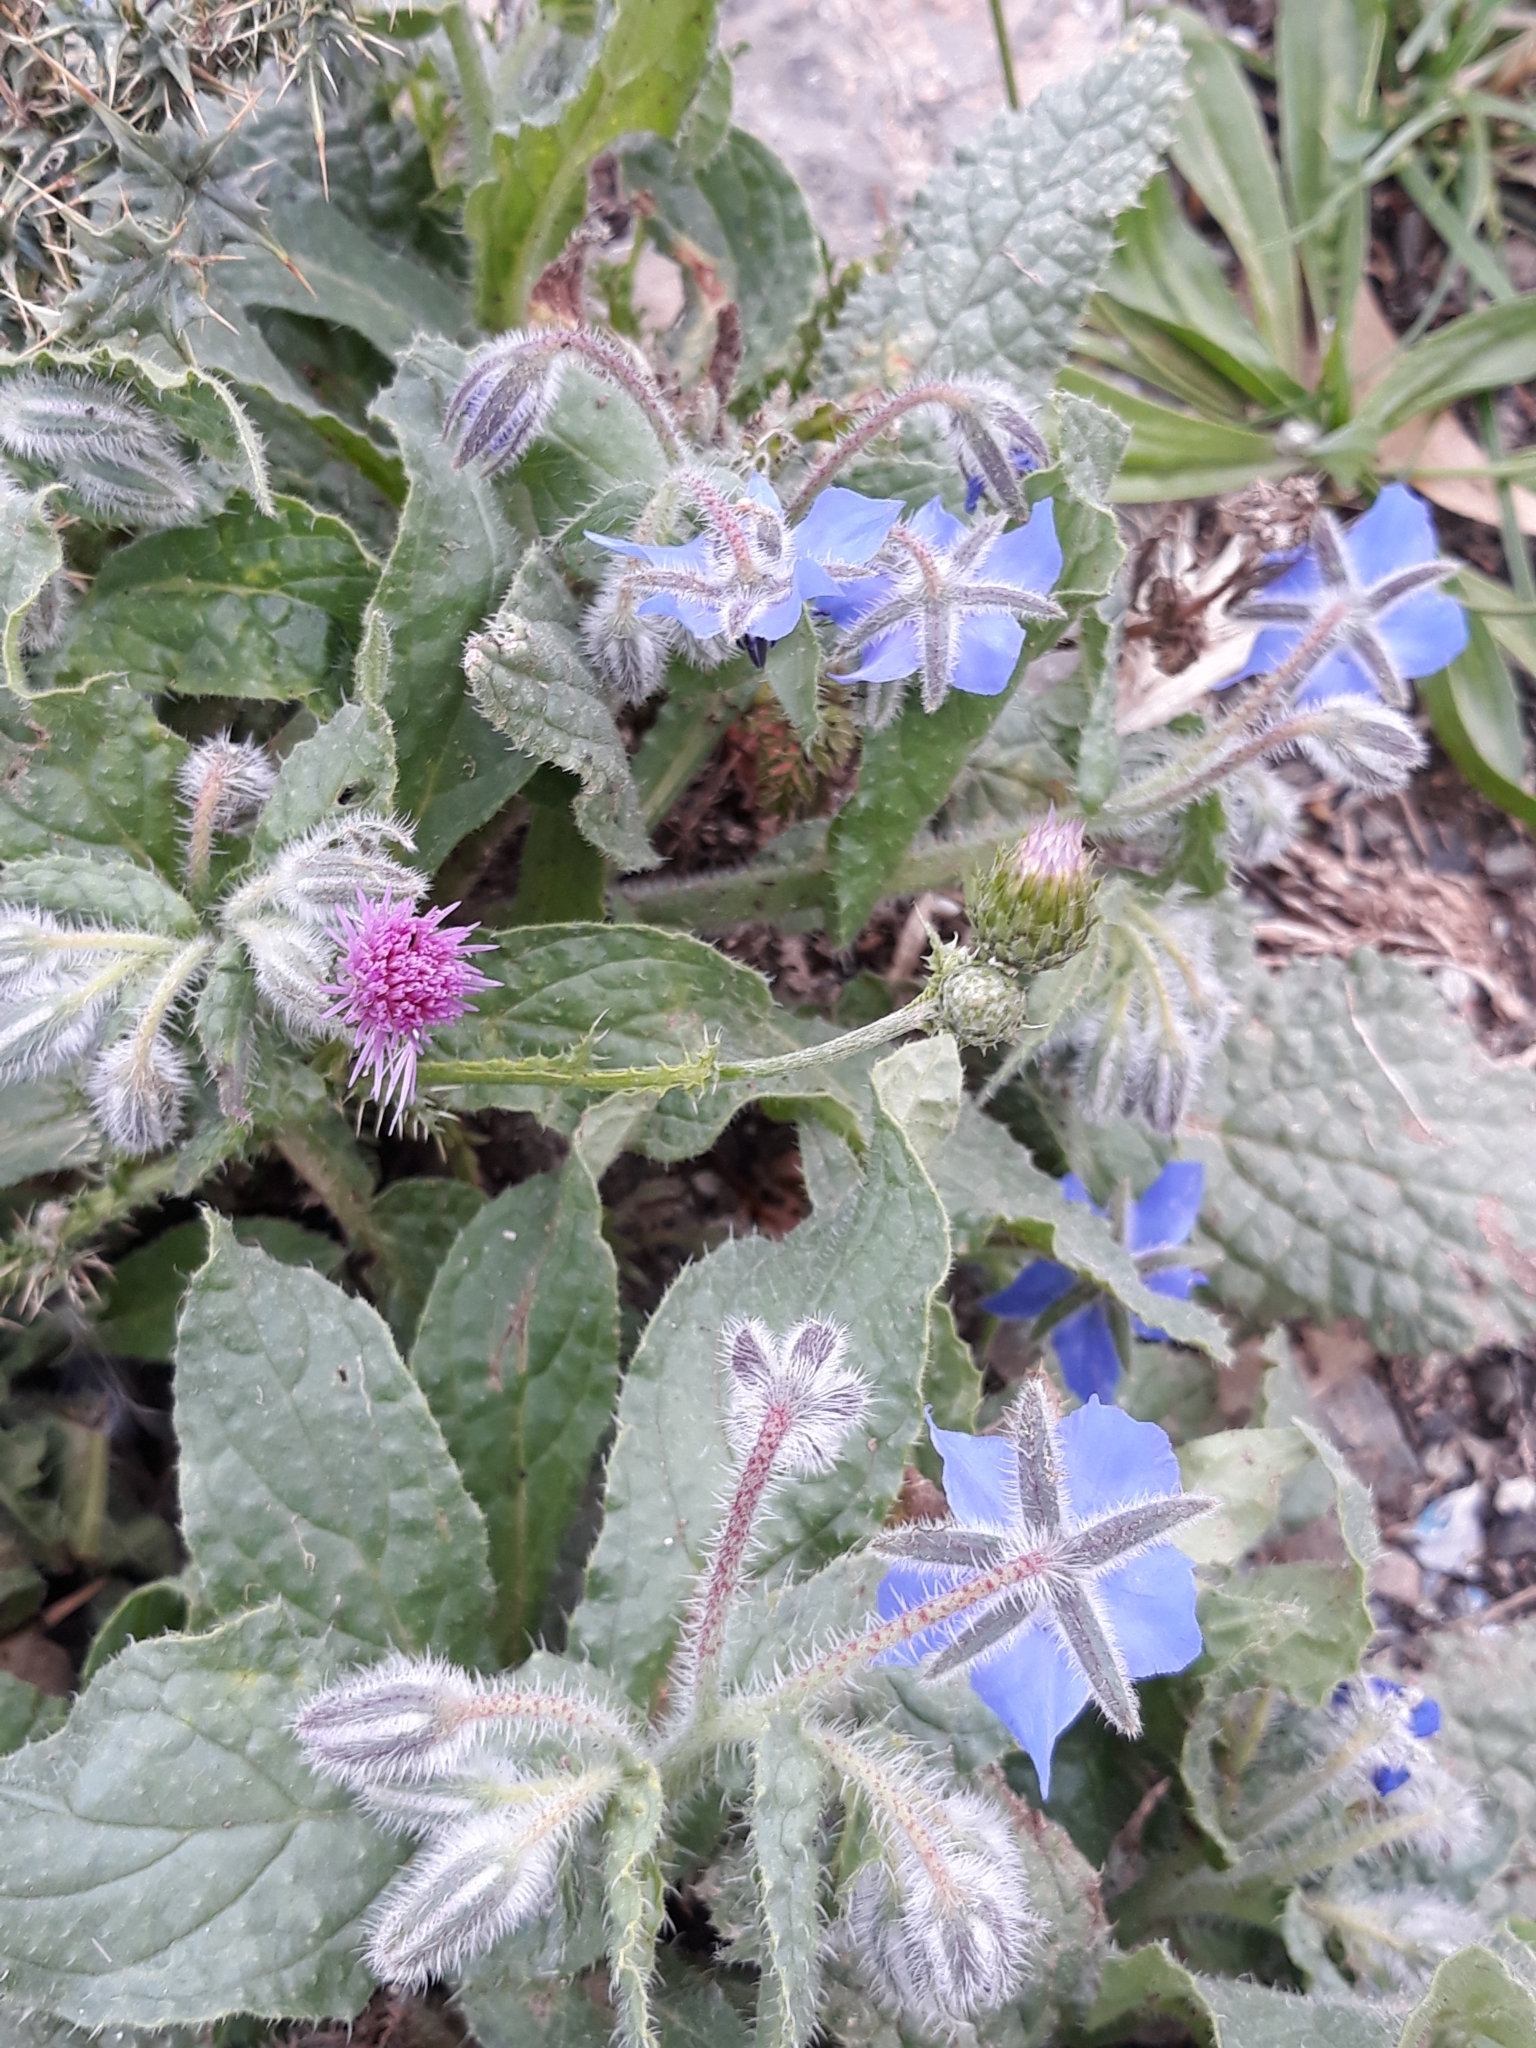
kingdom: Plantae
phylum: Tracheophyta
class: Magnoliopsida
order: Boraginales
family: Boraginaceae
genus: Borago
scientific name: Borago officinalis
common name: Borage
